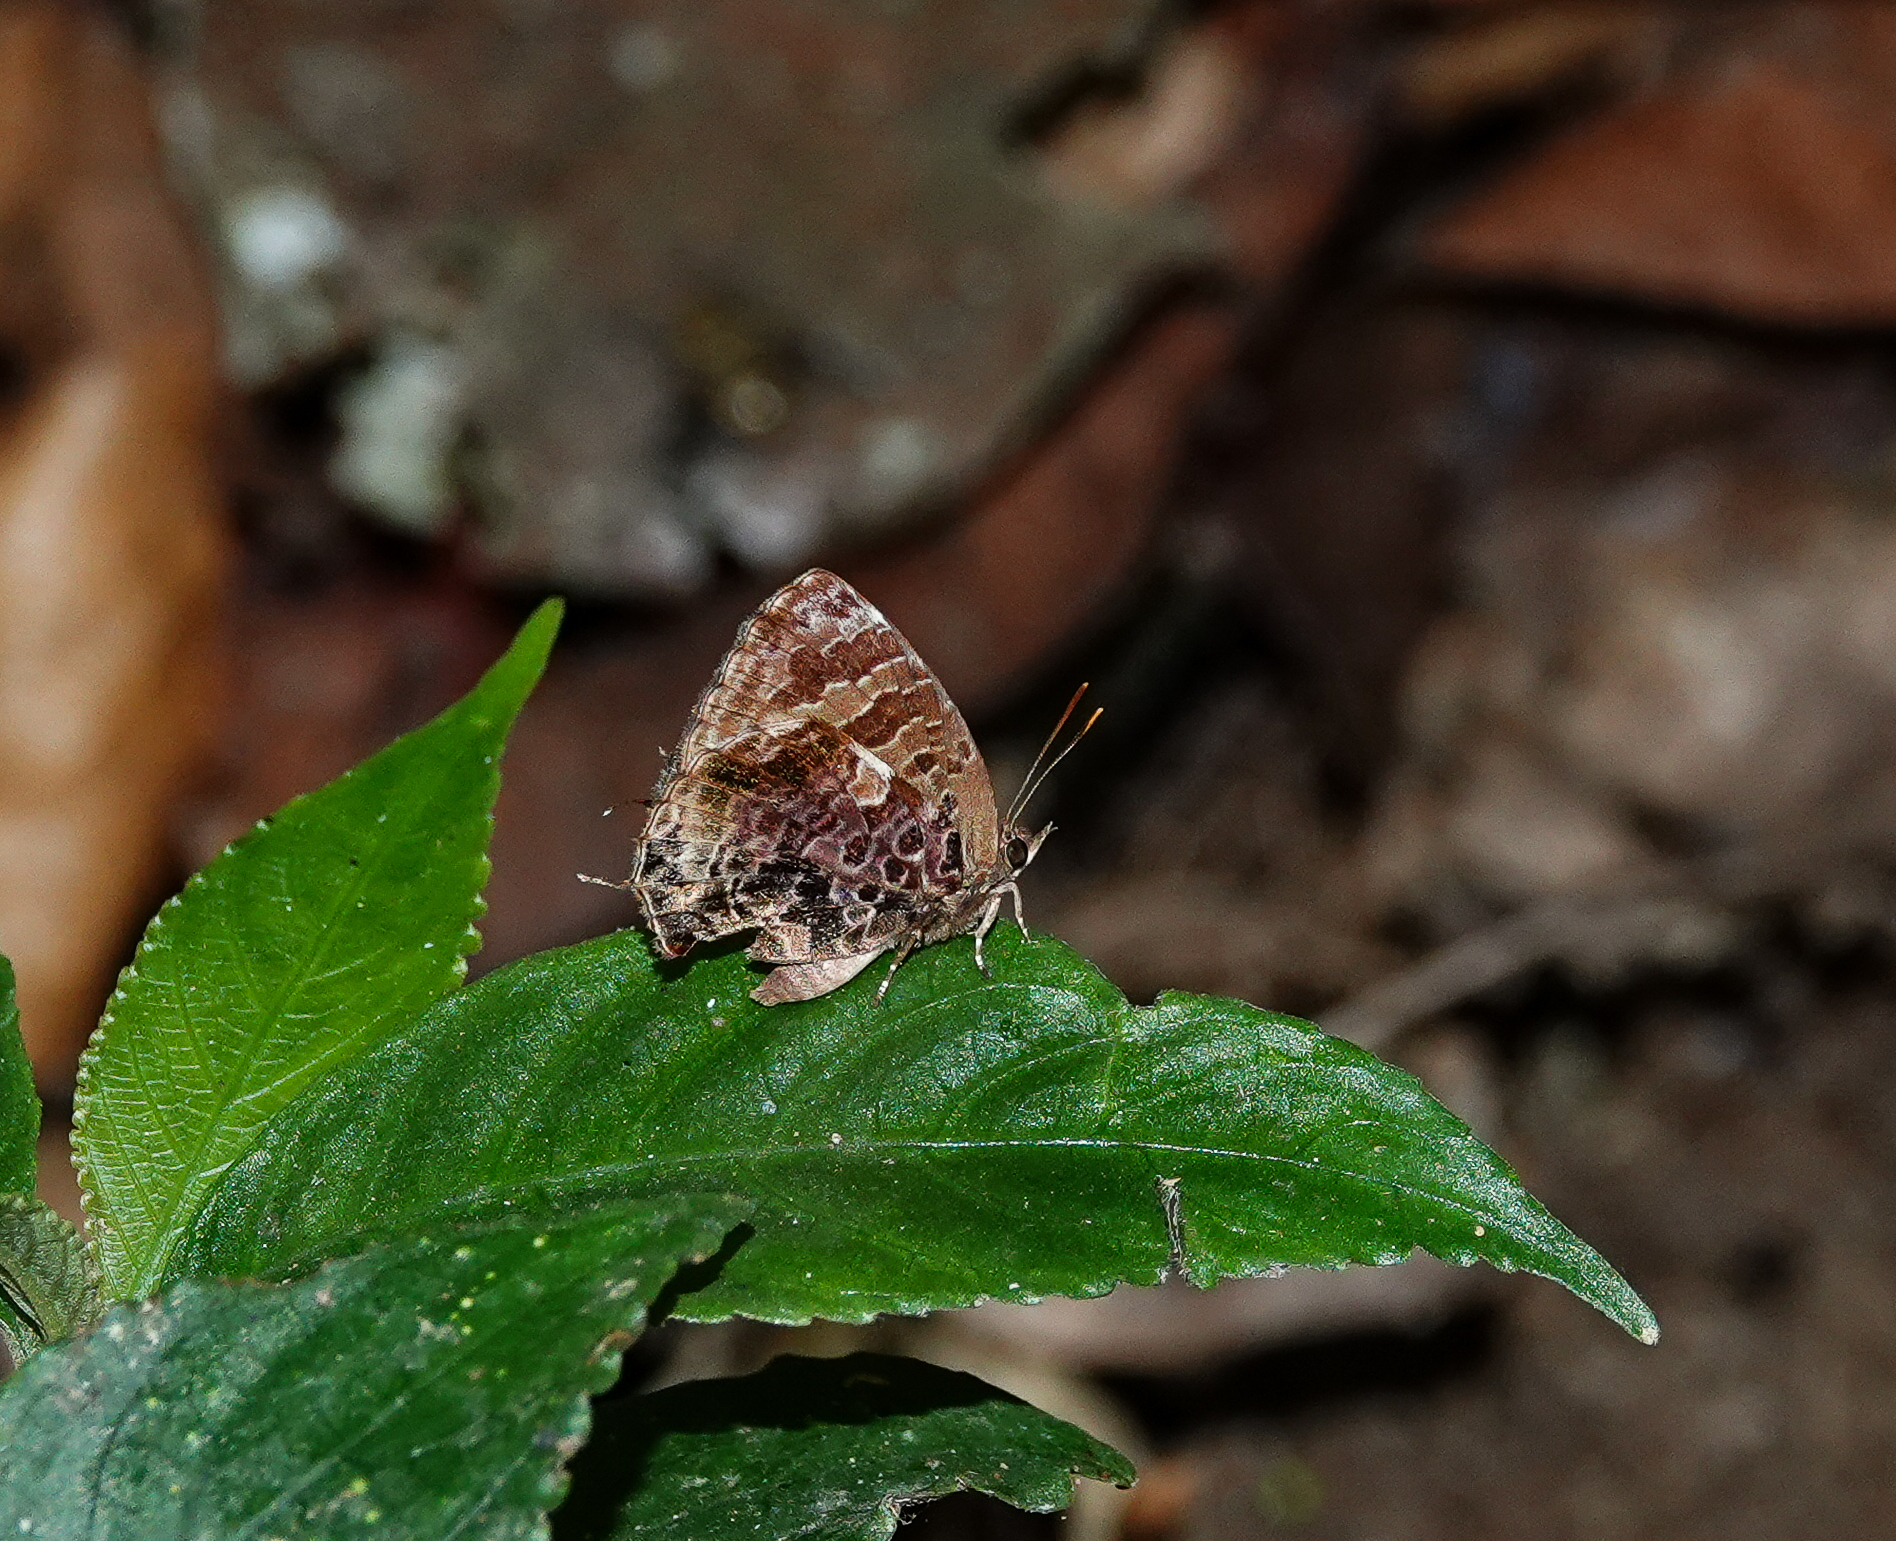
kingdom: Animalia
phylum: Arthropoda
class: Insecta
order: Lepidoptera
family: Lycaenidae
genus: Arhopala
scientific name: Arhopala abseus
